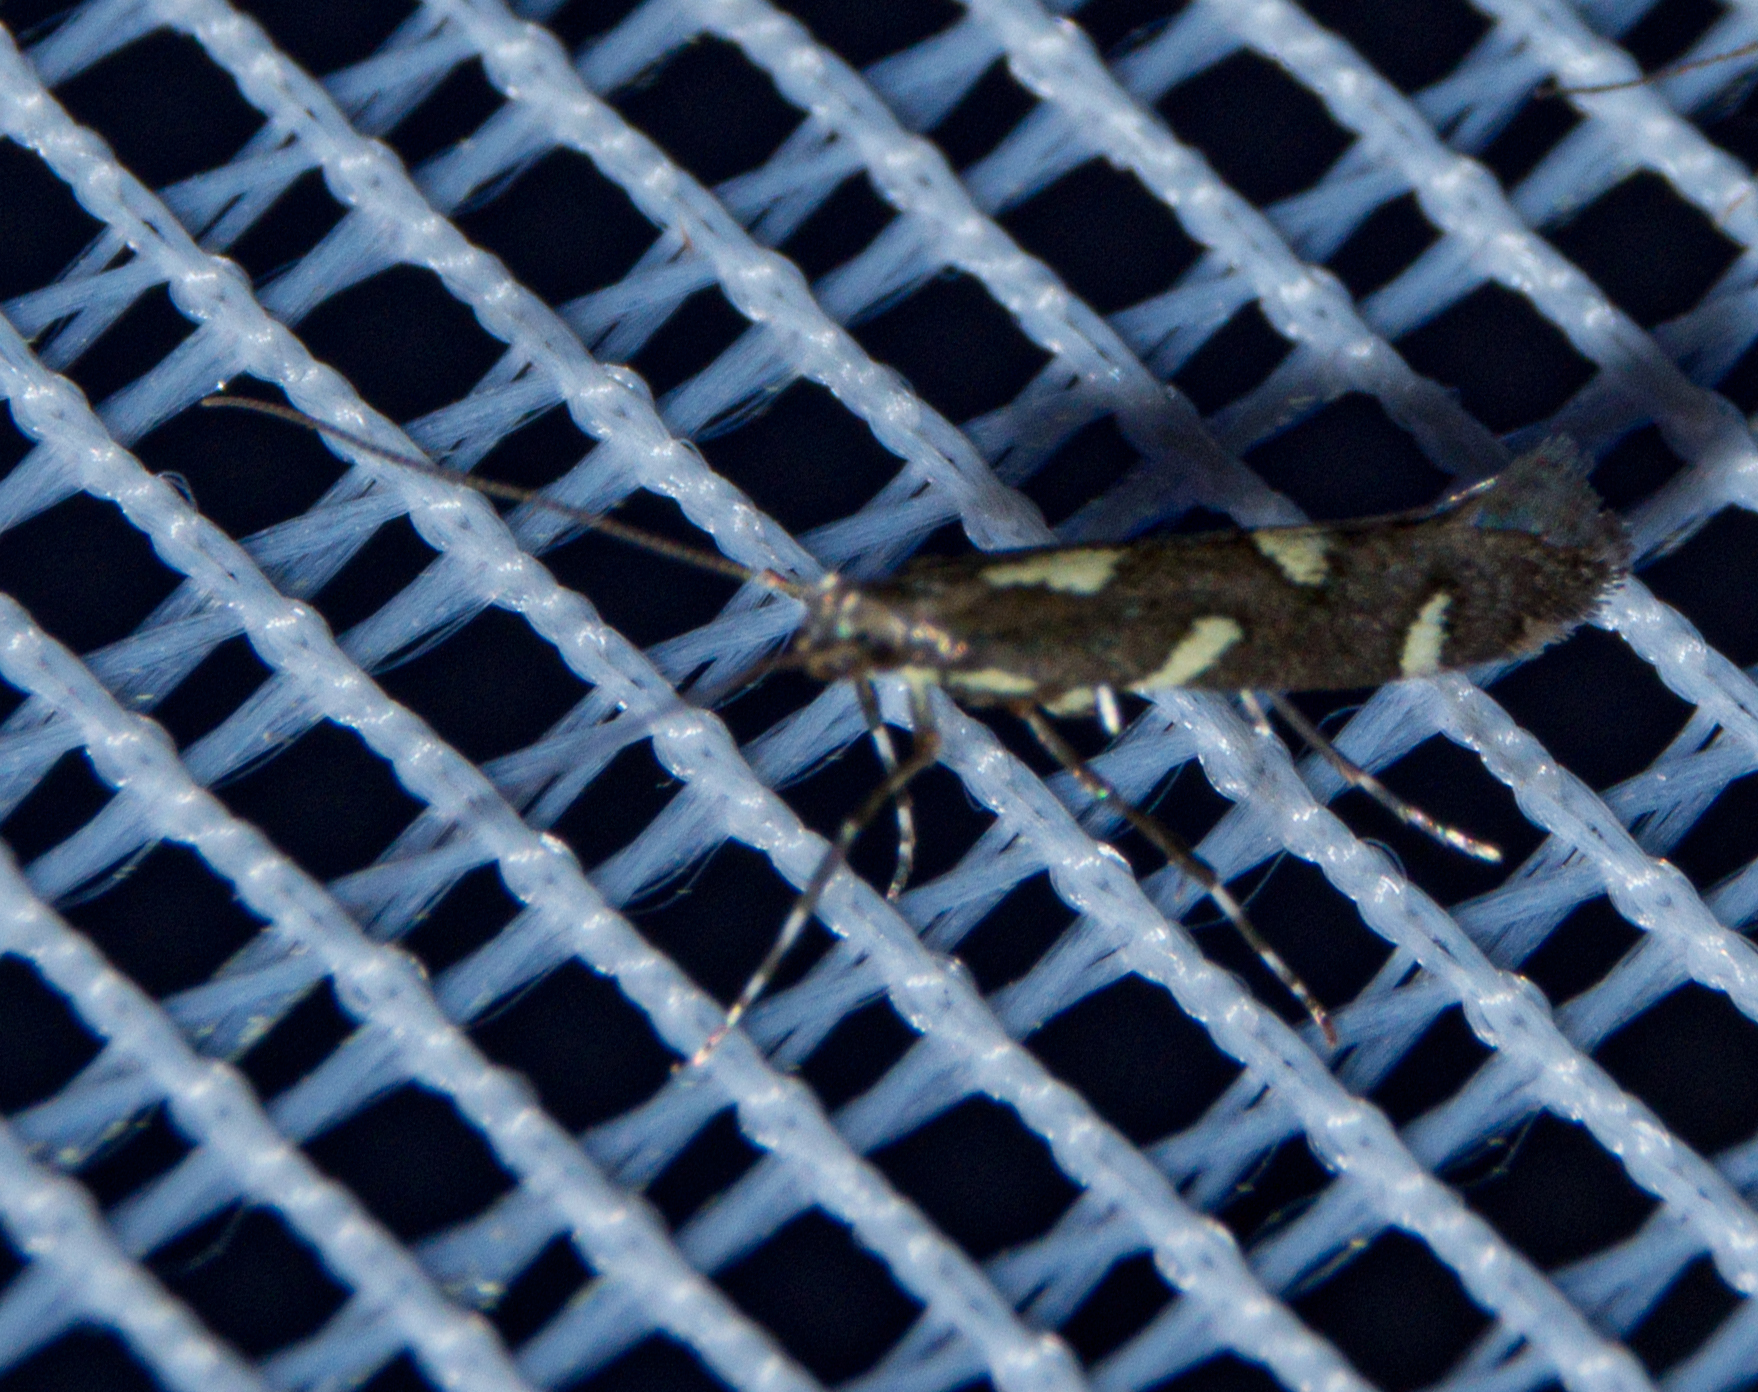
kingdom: Animalia
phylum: Arthropoda
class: Insecta
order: Lepidoptera
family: Gracillariidae
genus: Calybites
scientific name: Calybites phasianipennella
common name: Little slender
